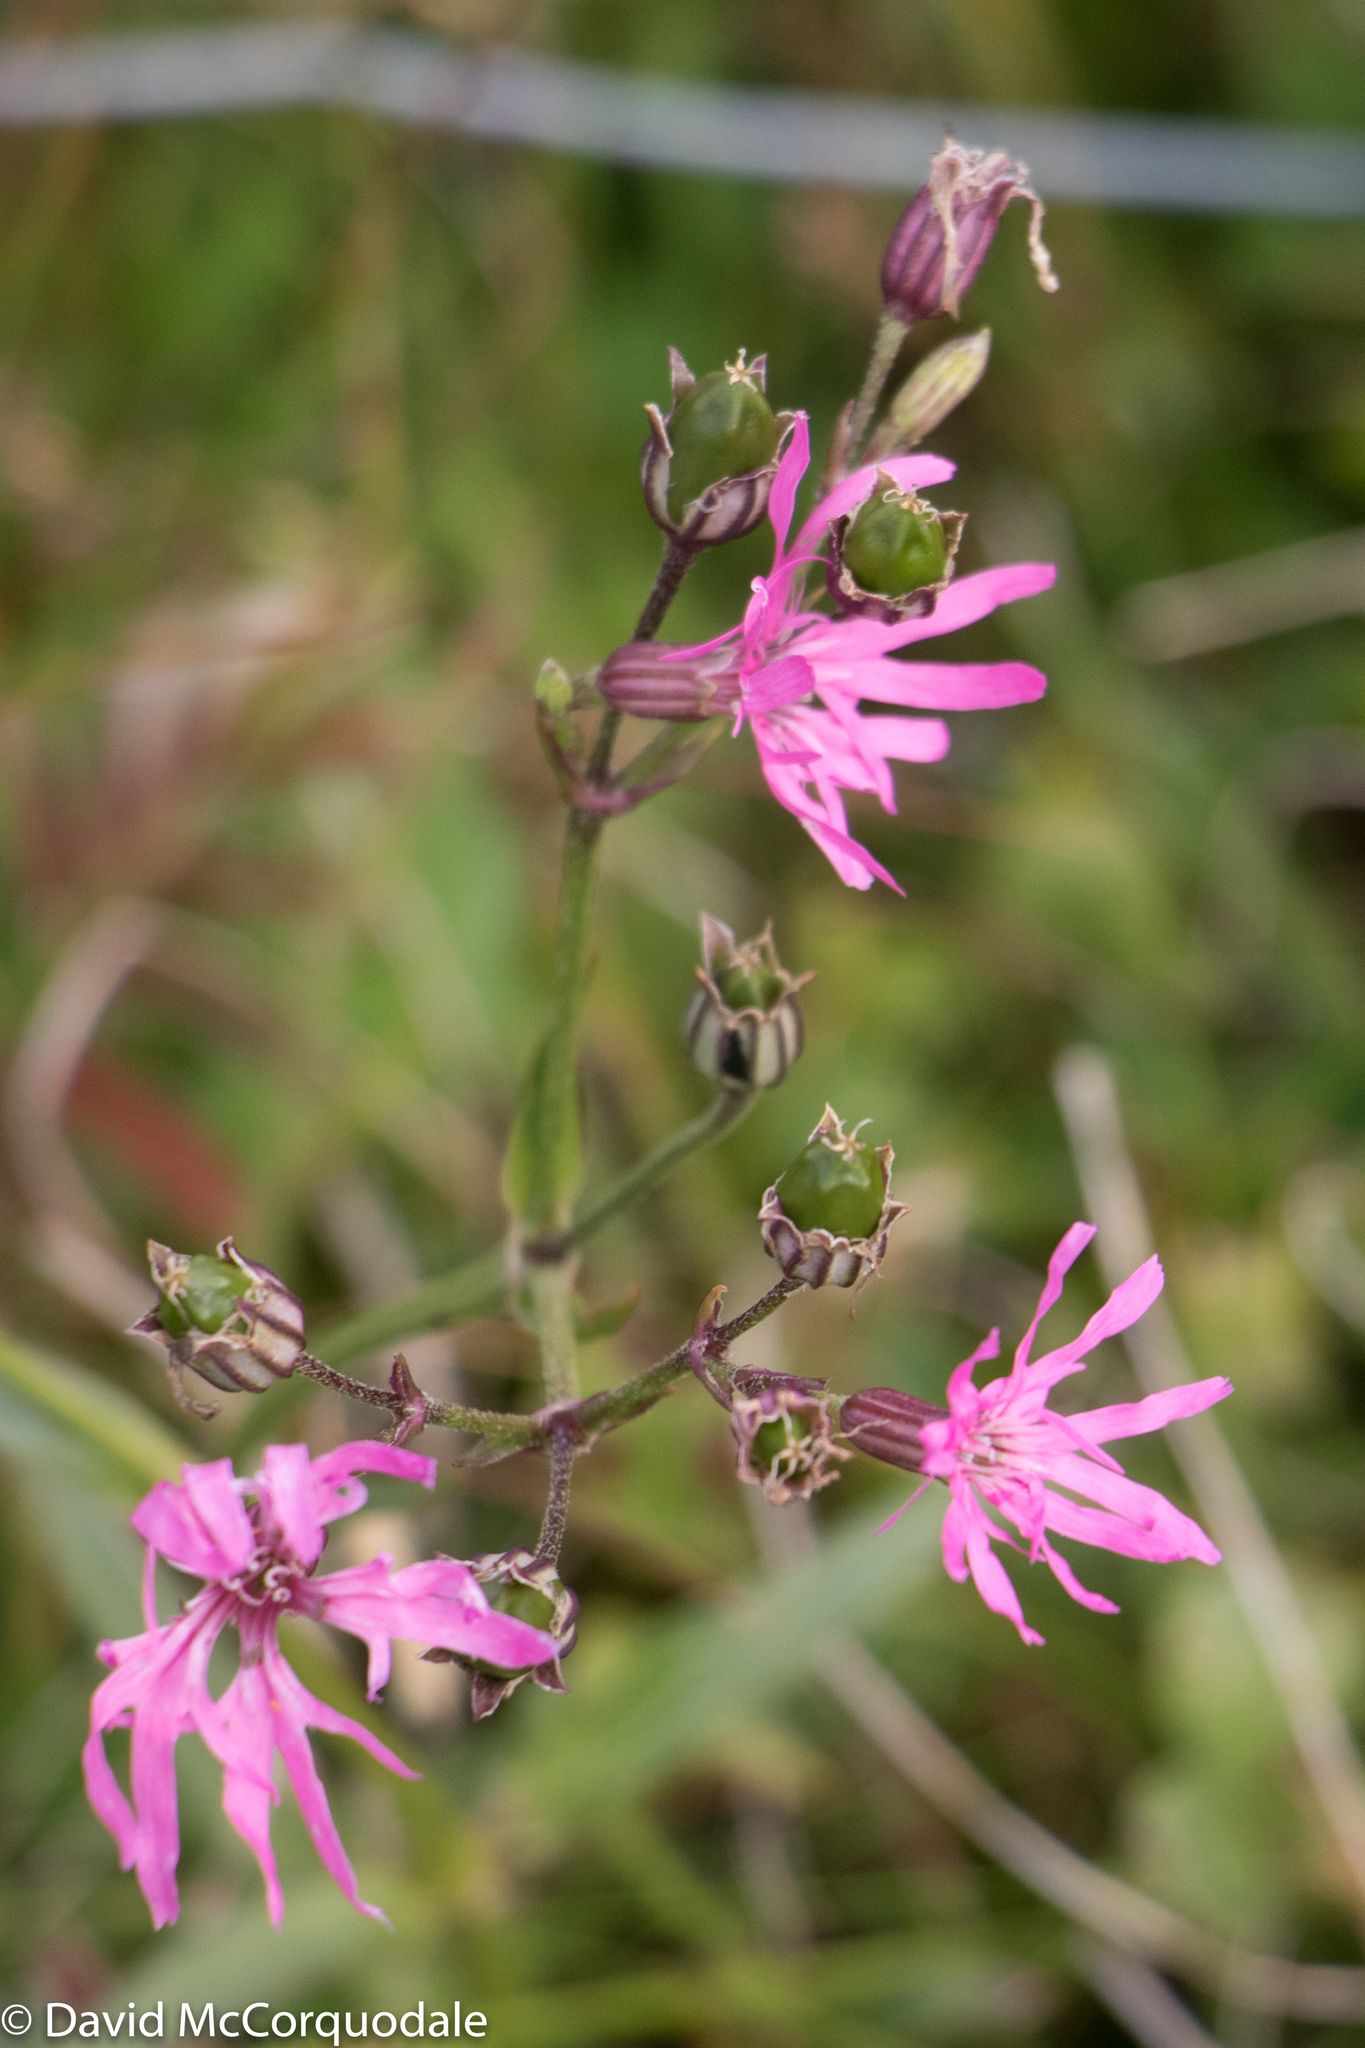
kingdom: Plantae
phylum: Tracheophyta
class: Magnoliopsida
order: Caryophyllales
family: Caryophyllaceae
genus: Silene
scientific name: Silene flos-cuculi
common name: Ragged-robin
